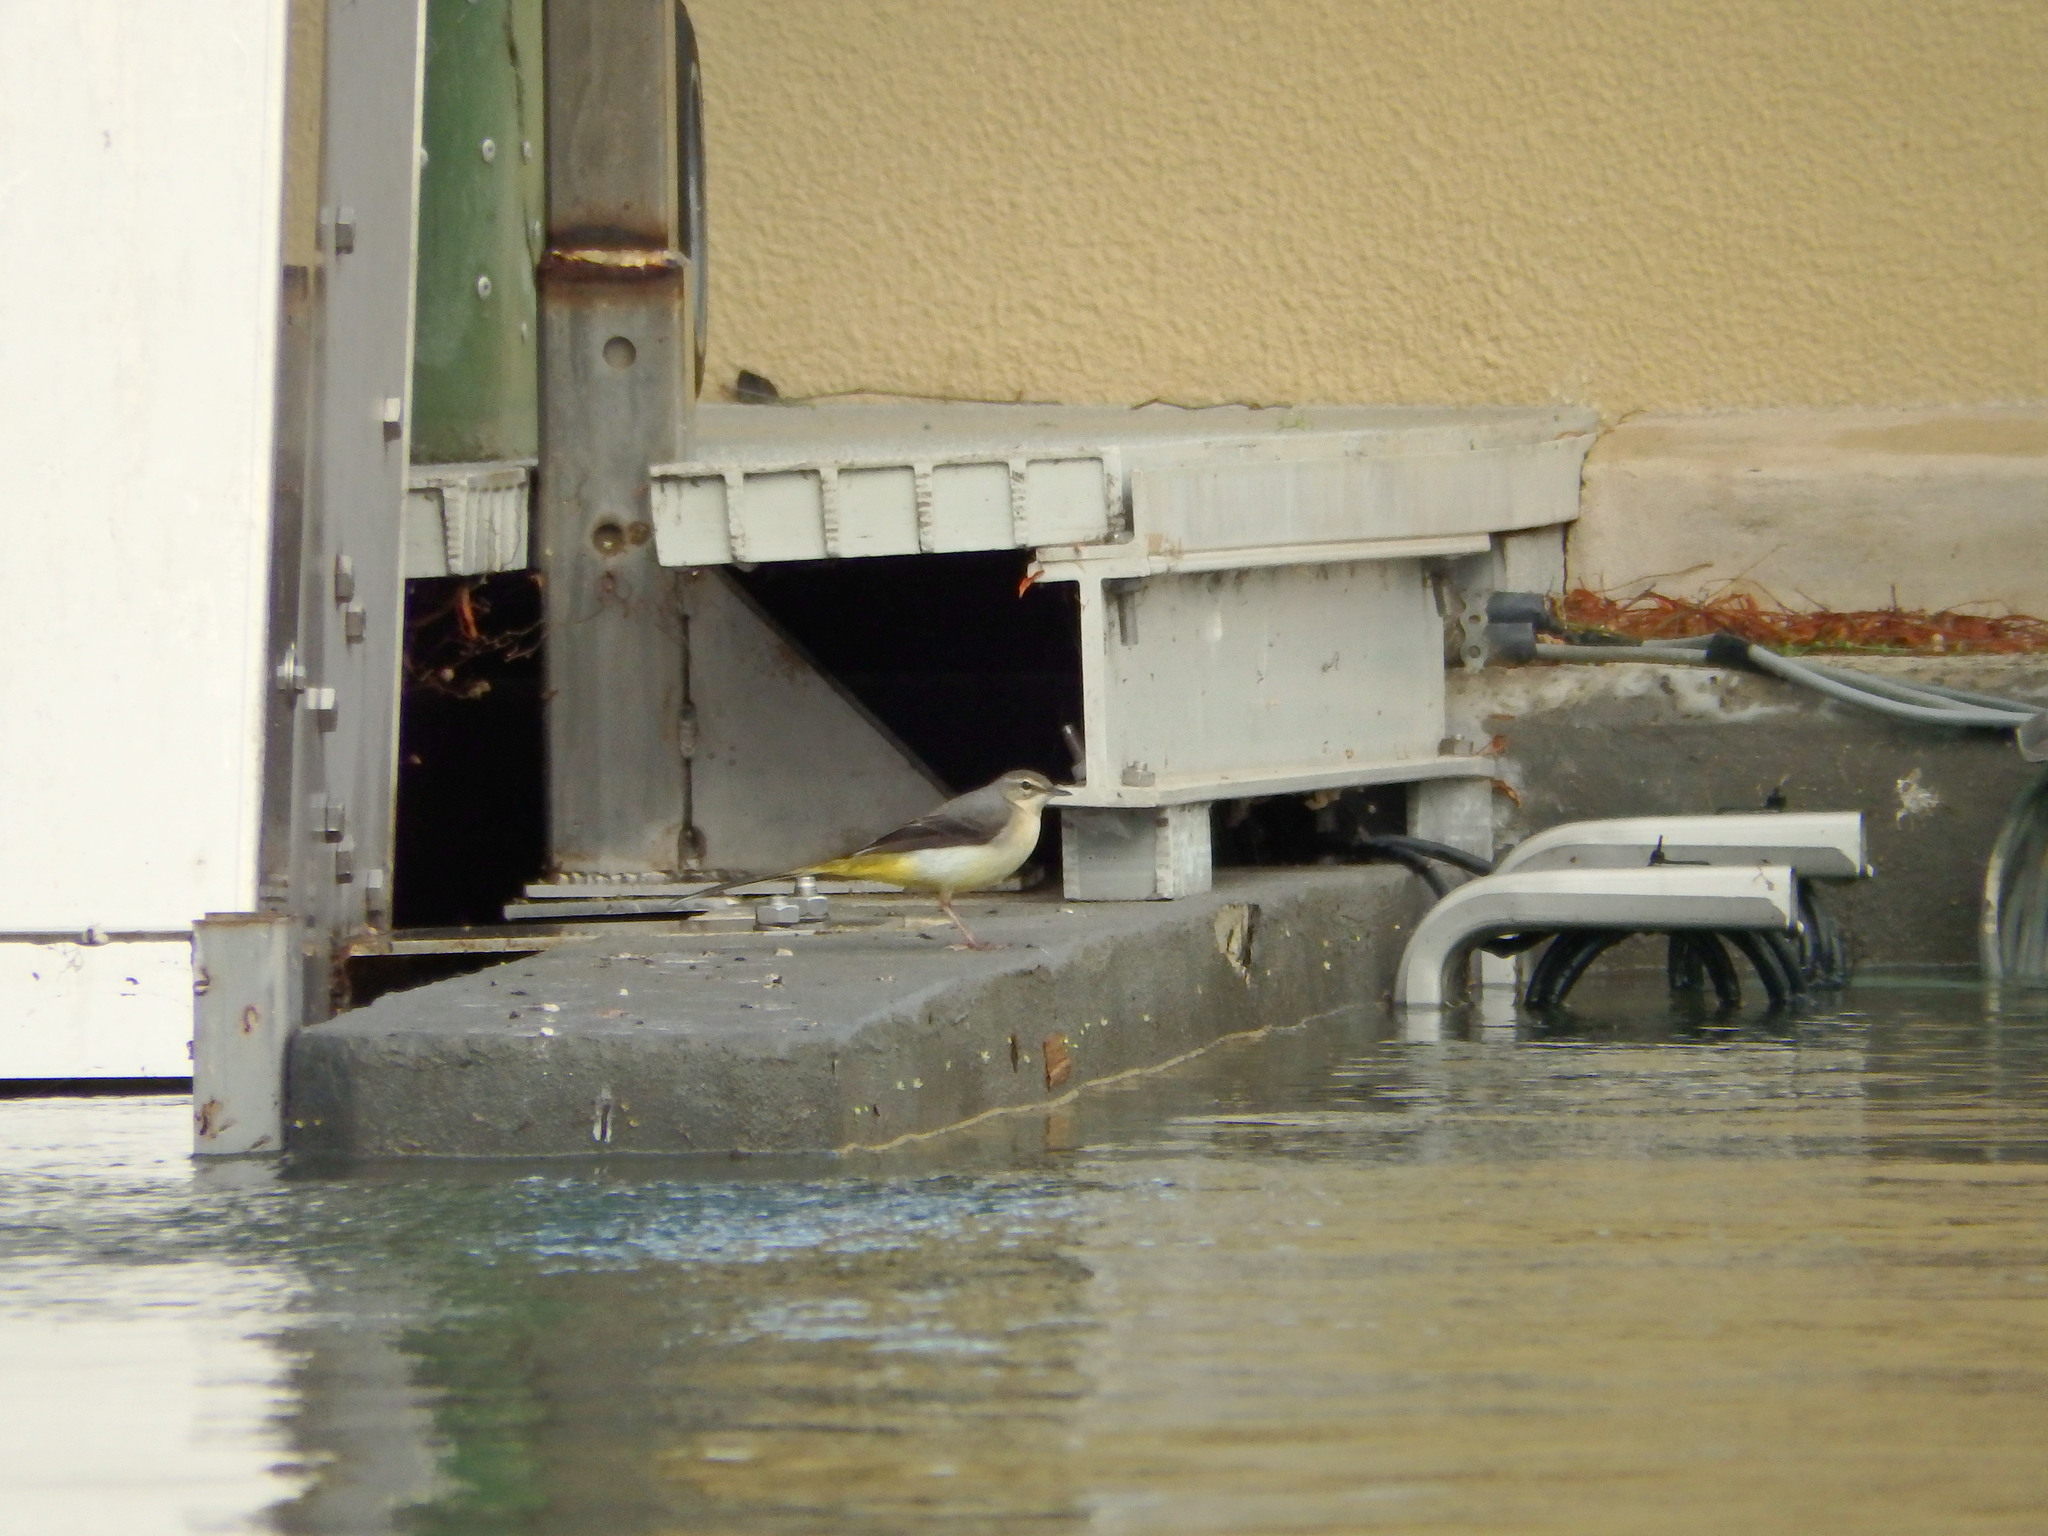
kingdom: Animalia
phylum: Chordata
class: Aves
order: Passeriformes
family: Motacillidae
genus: Motacilla
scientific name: Motacilla cinerea
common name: Grey wagtail
